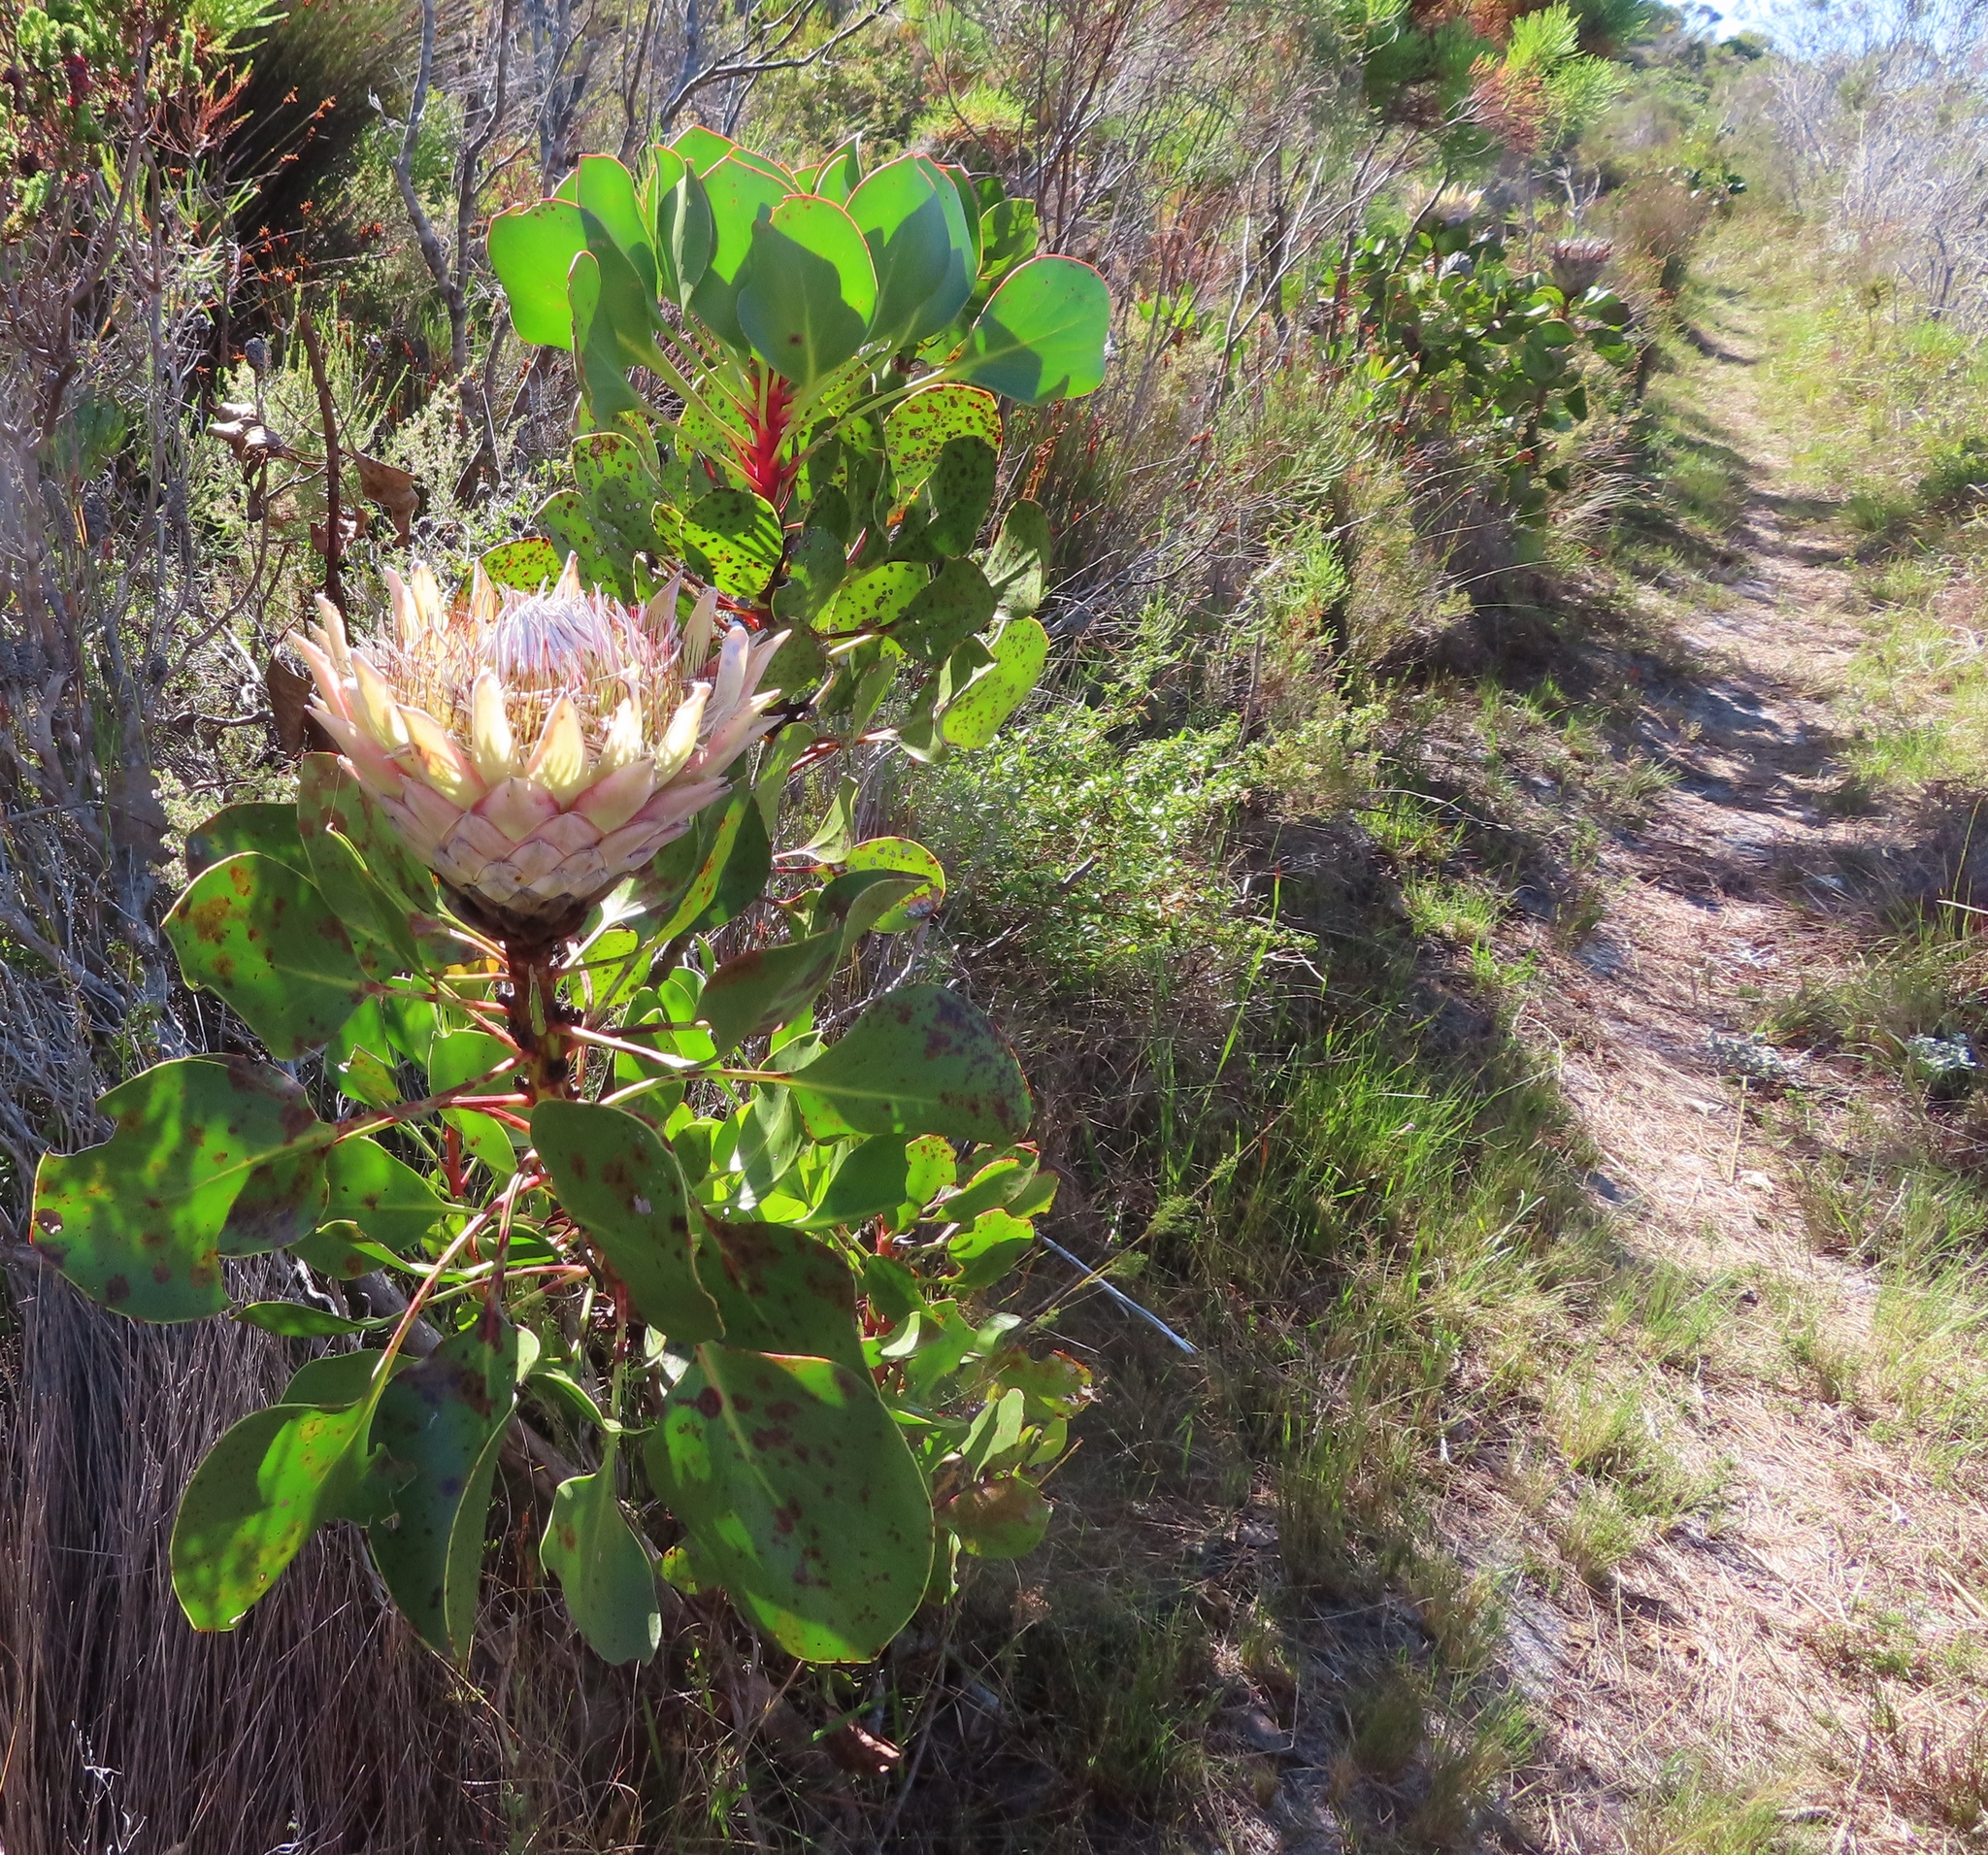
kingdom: Plantae
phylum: Tracheophyta
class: Magnoliopsida
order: Proteales
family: Proteaceae
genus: Protea
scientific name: Protea cynaroides
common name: King protea
